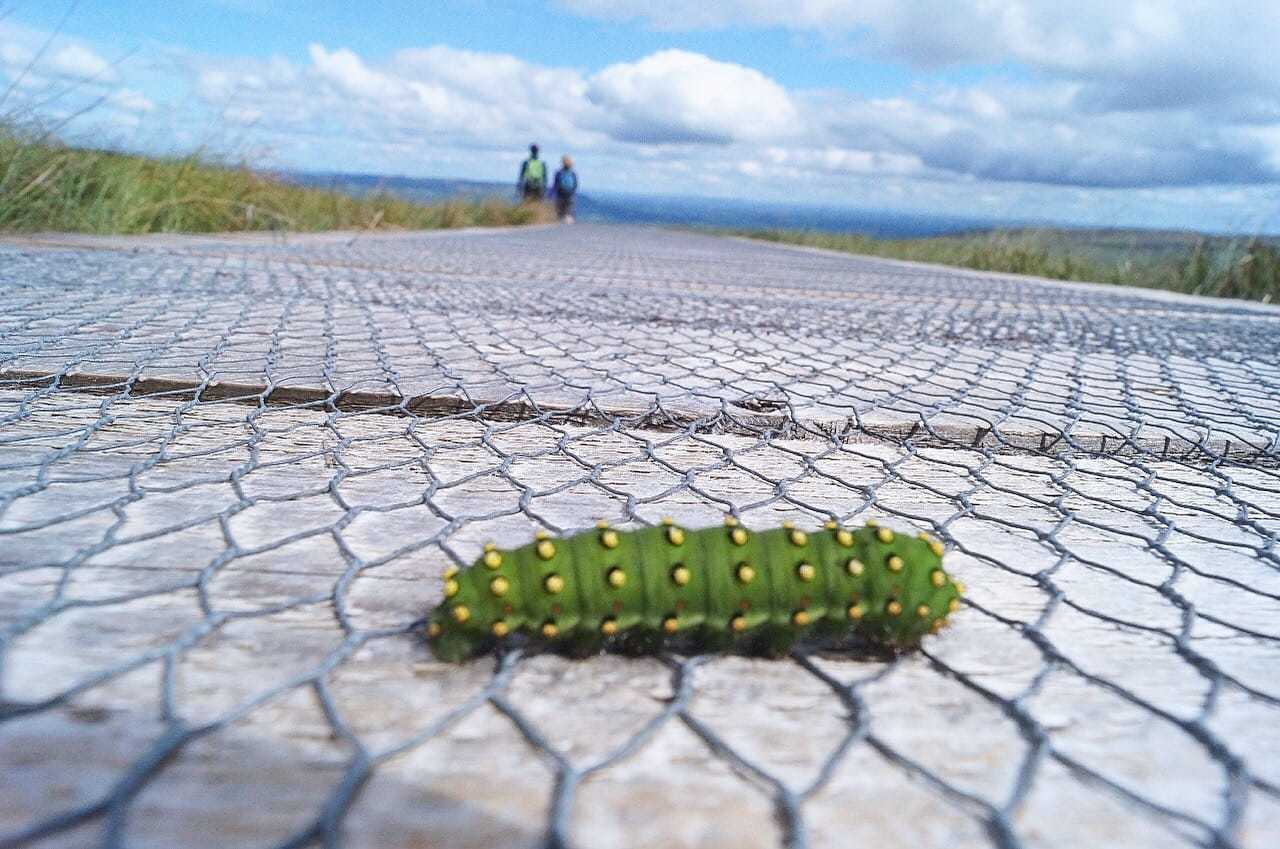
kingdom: Animalia
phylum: Arthropoda
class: Insecta
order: Lepidoptera
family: Saturniidae
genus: Saturnia
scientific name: Saturnia pavonia
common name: Emperor moth
